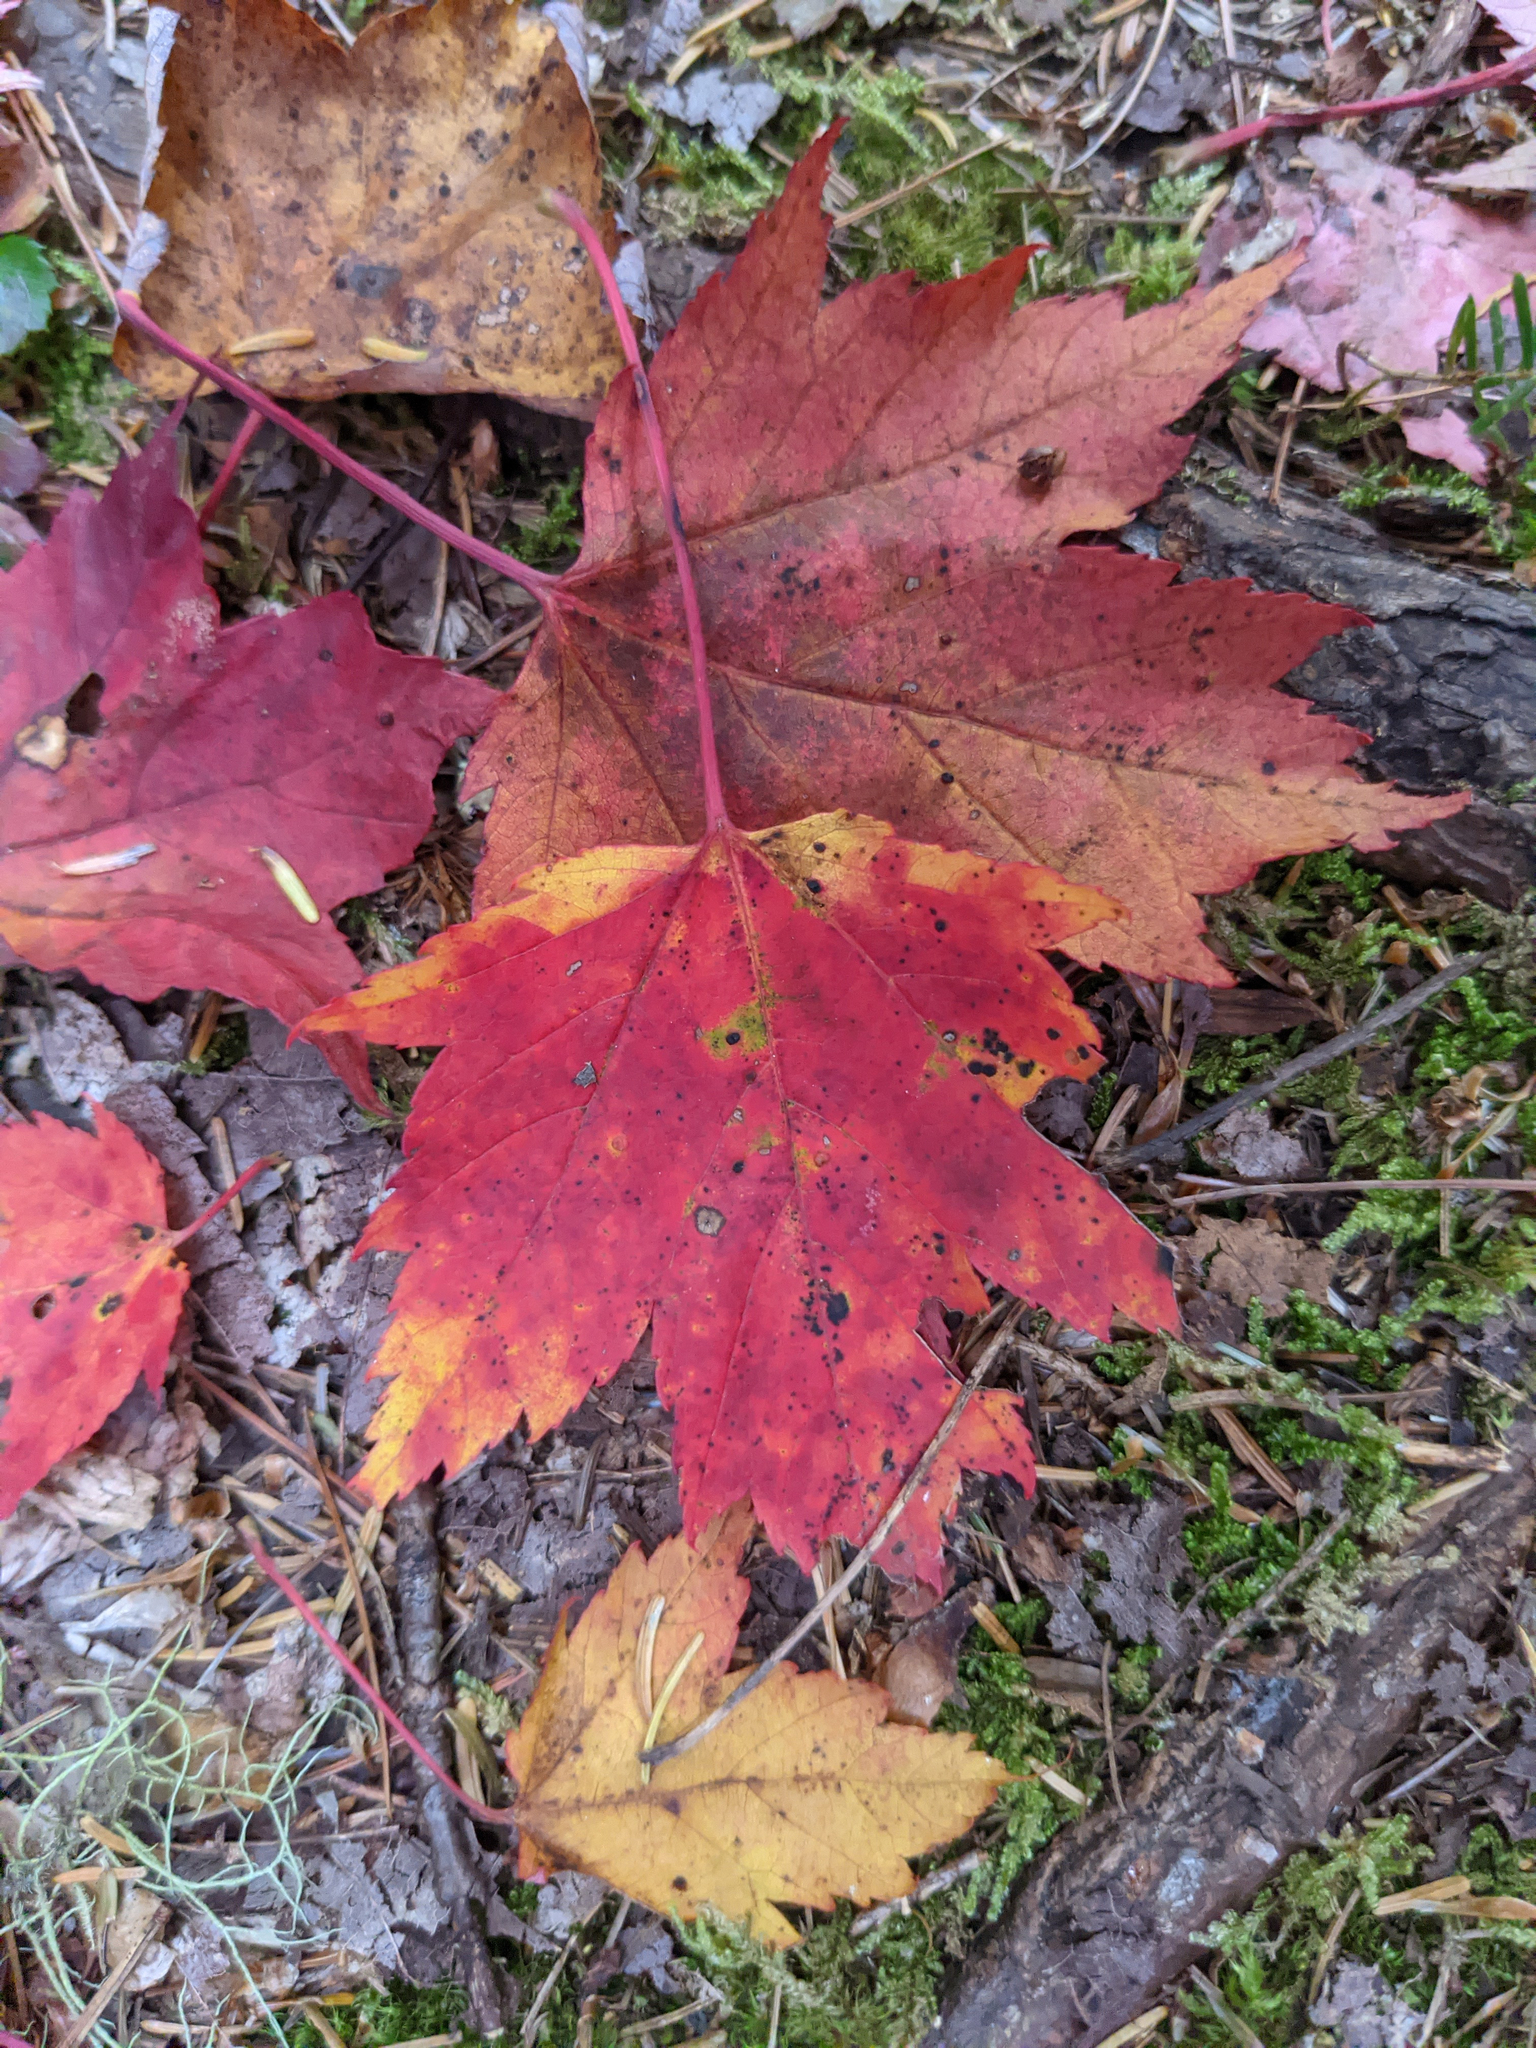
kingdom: Plantae
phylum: Tracheophyta
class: Magnoliopsida
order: Sapindales
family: Sapindaceae
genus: Acer
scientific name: Acer rubrum
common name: Red maple
